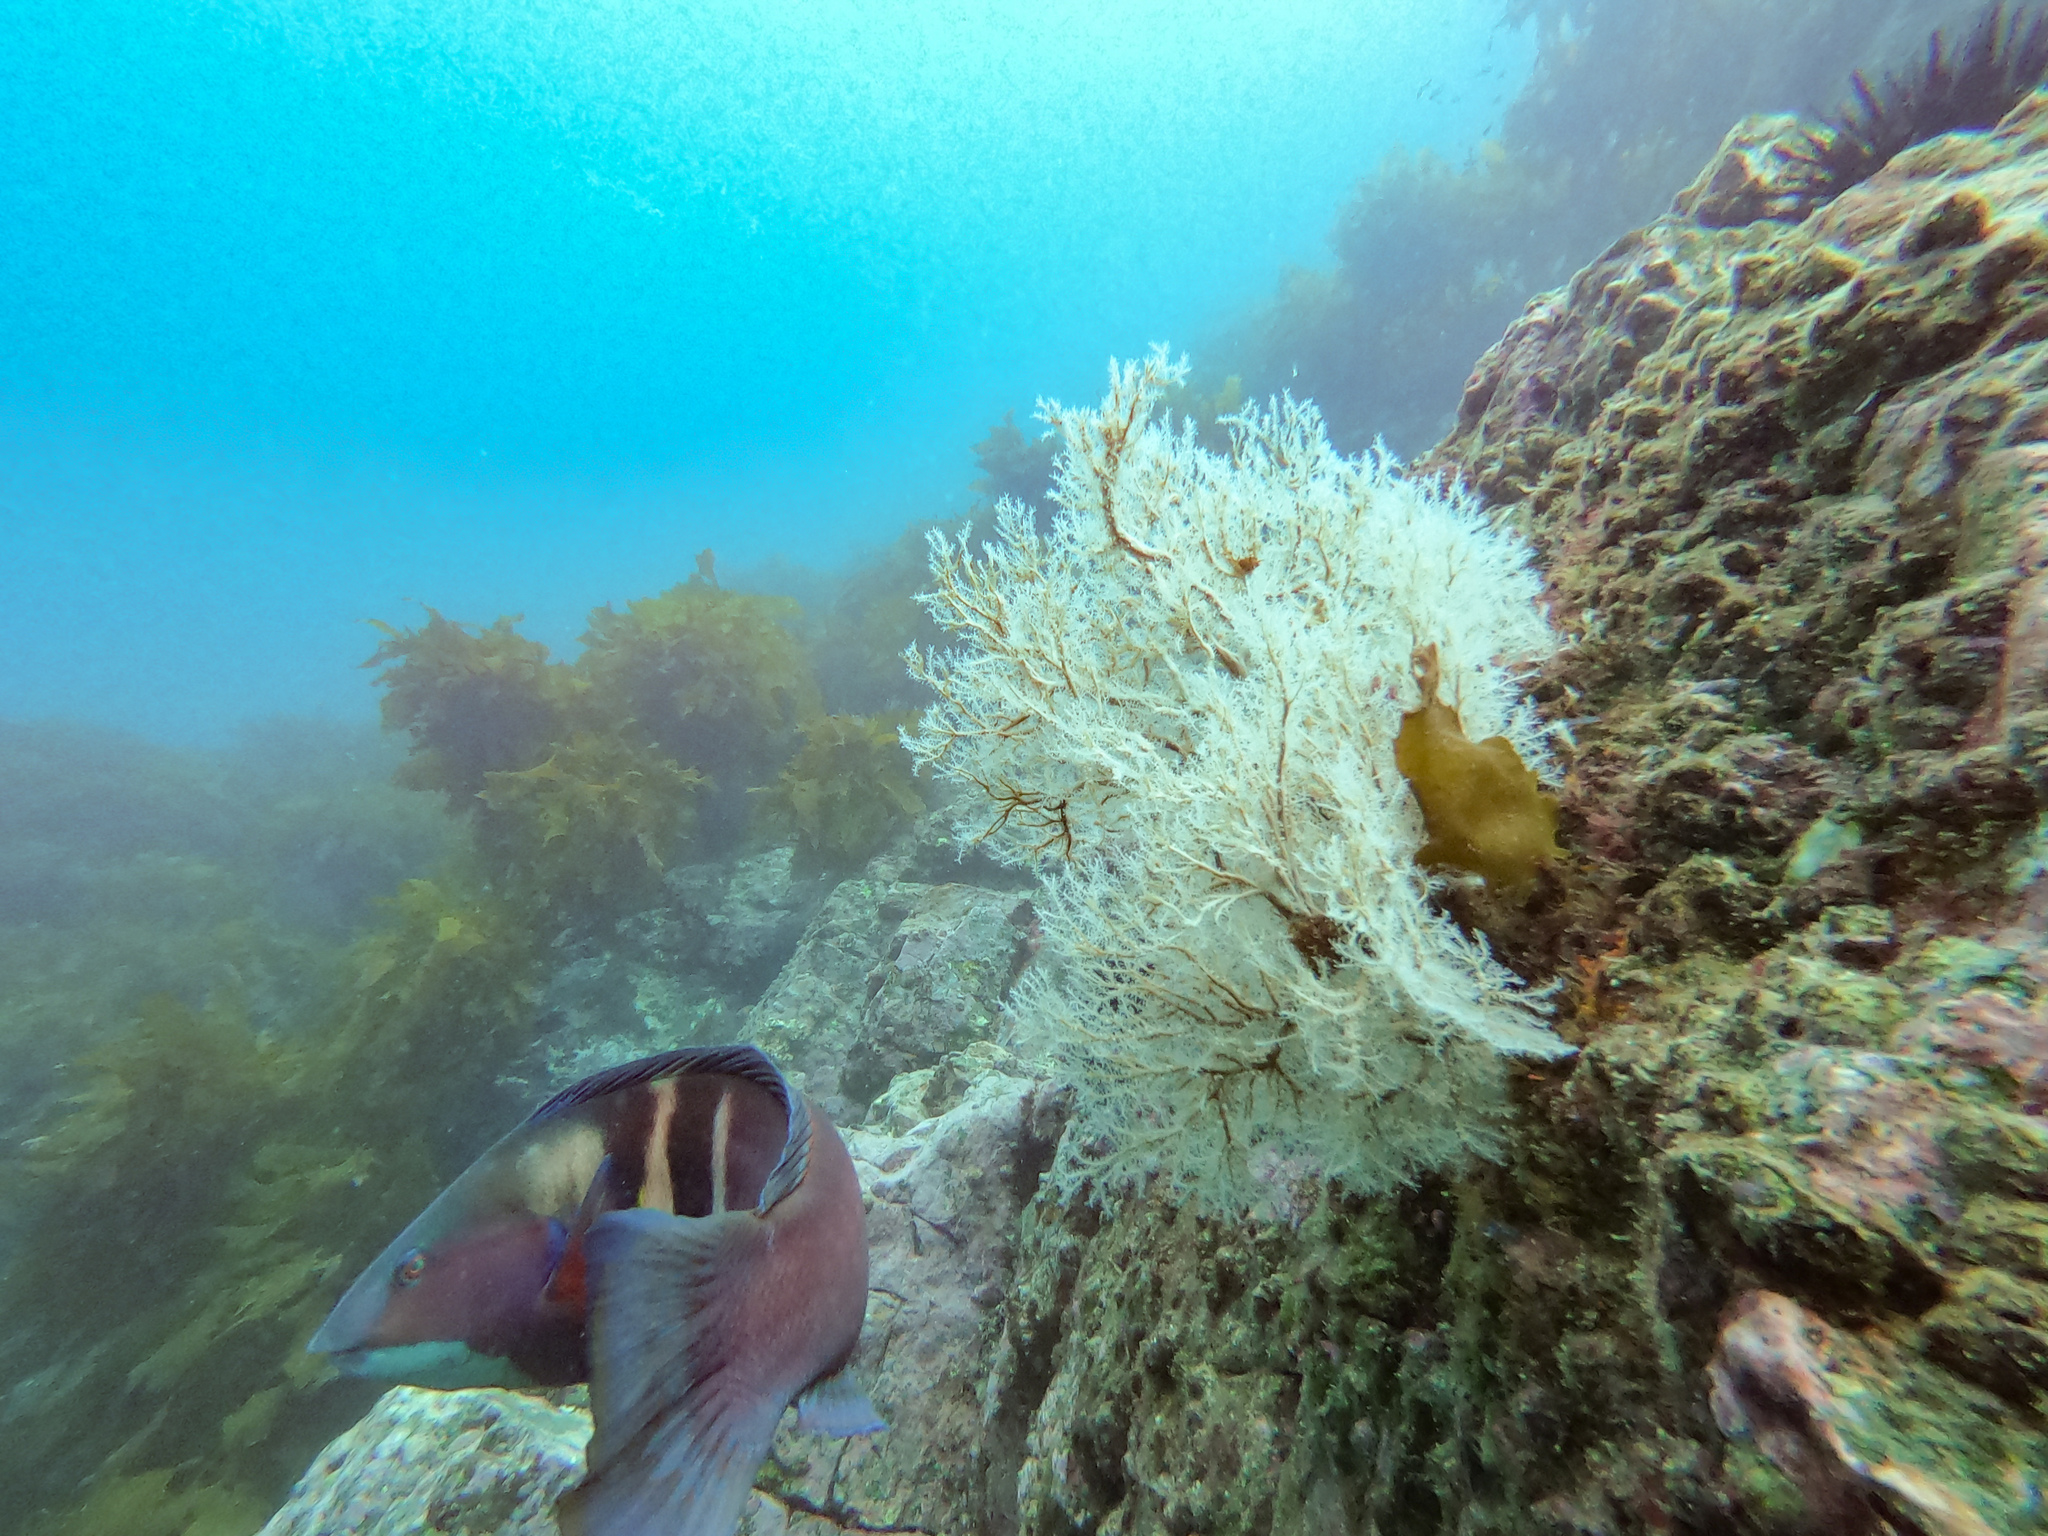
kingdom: Animalia
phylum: Cnidaria
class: Hydrozoa
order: Anthoathecata
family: Solanderiidae
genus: Solanderia
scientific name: Solanderia ericopsis
